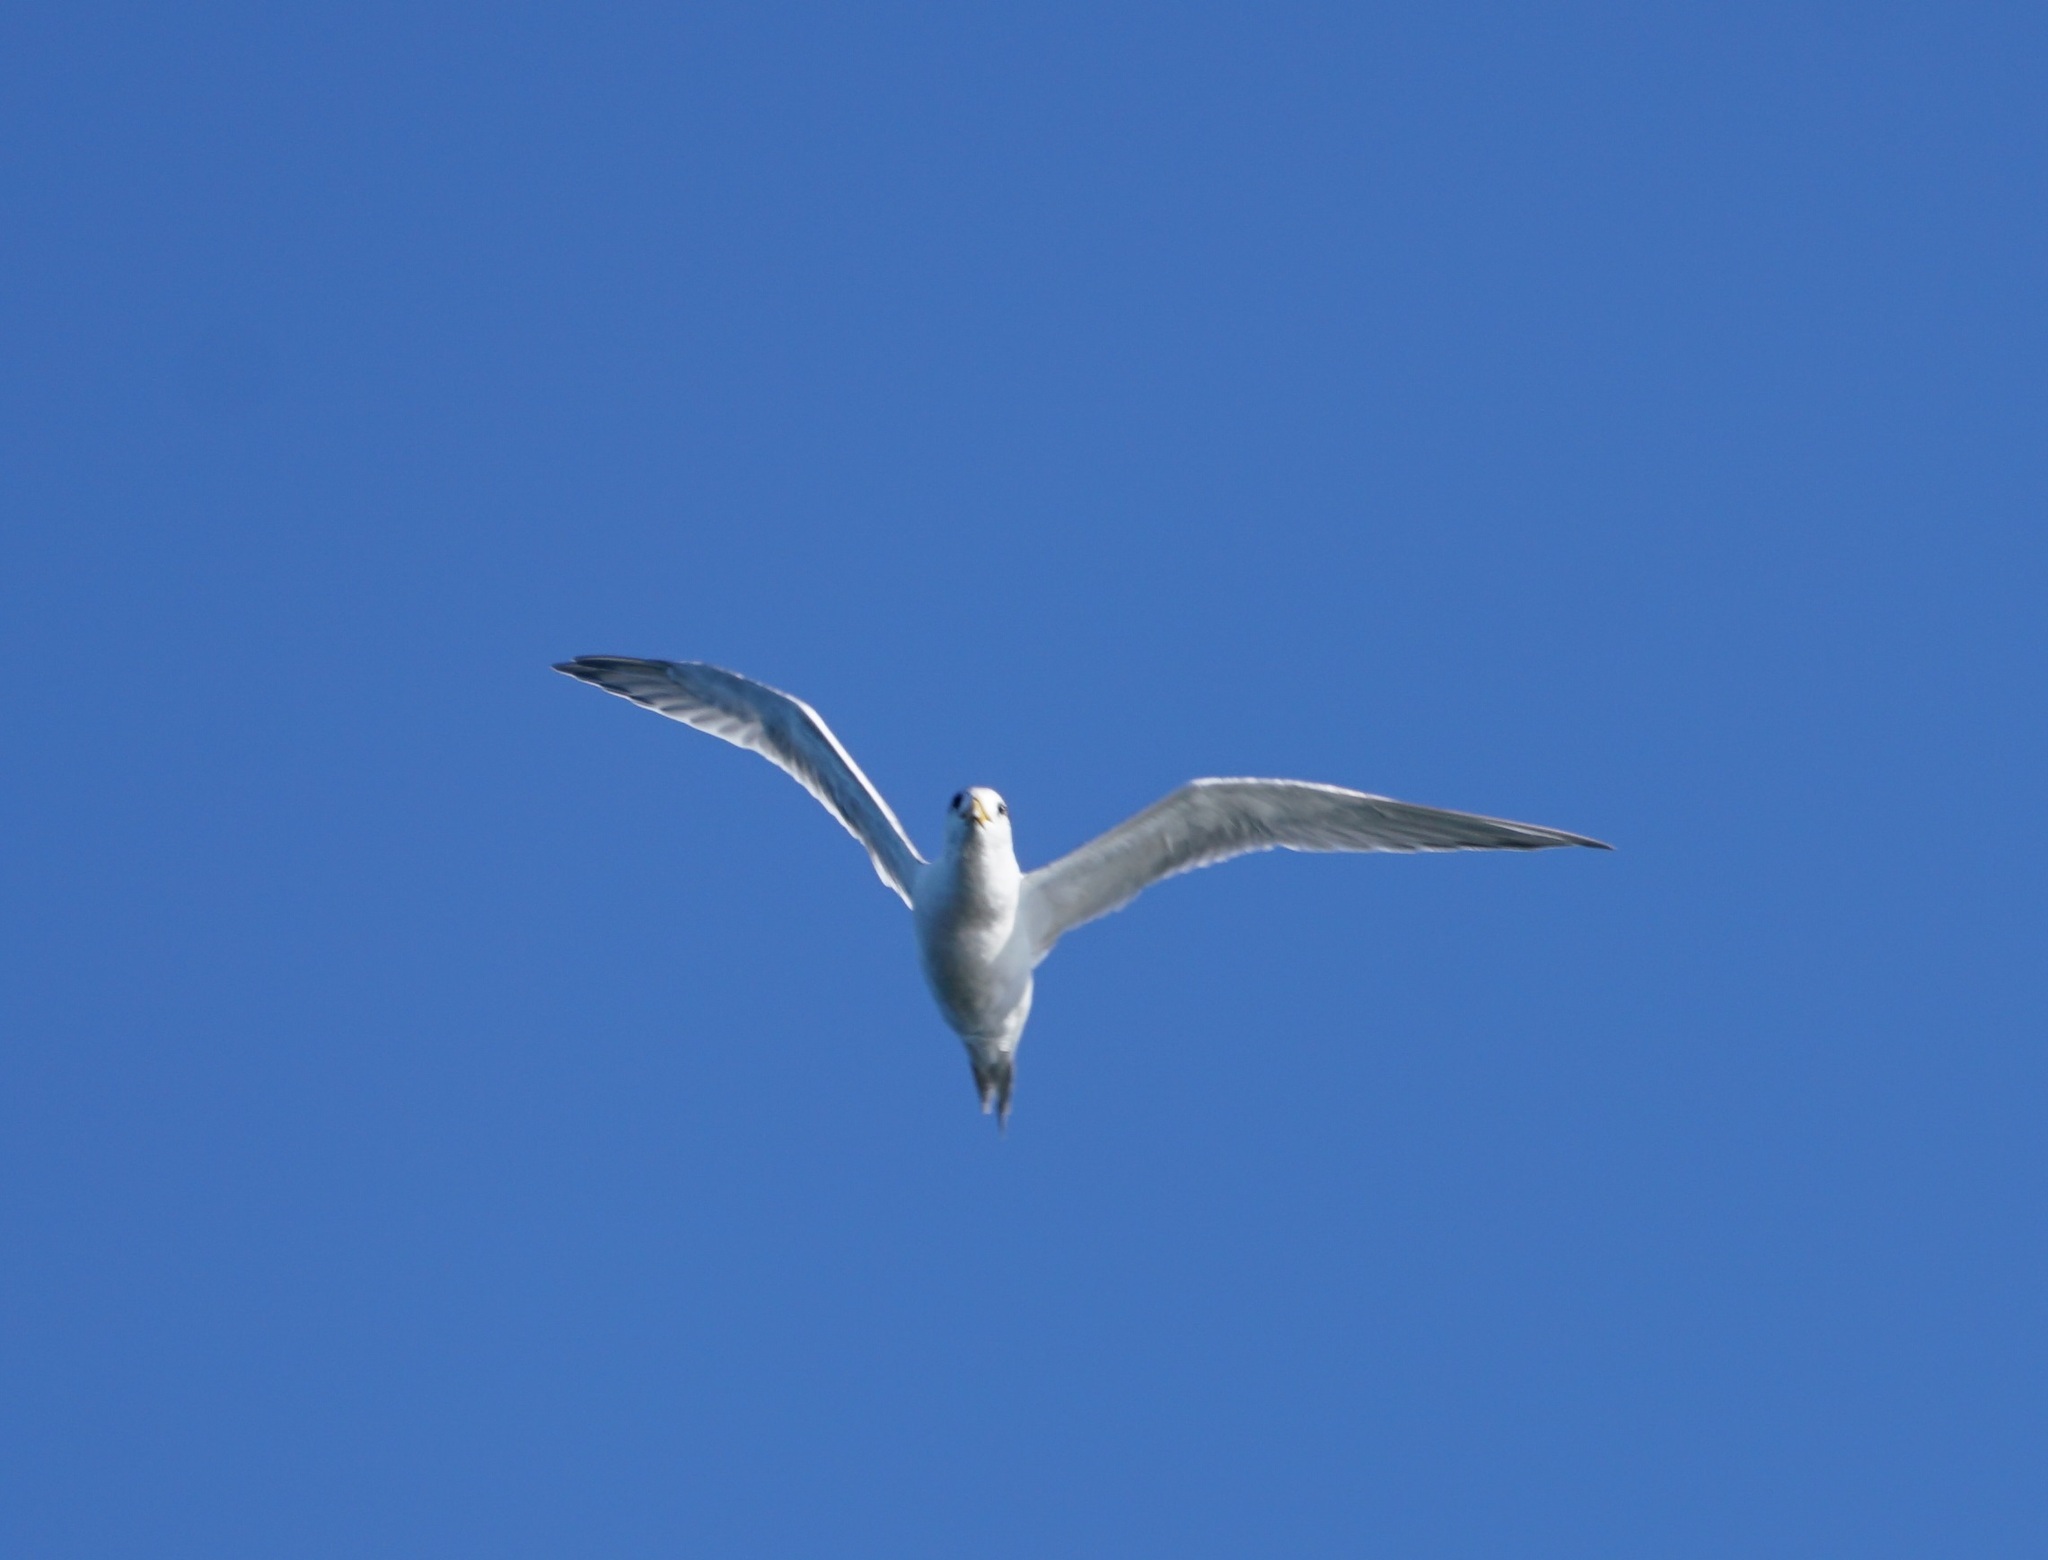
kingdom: Animalia
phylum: Chordata
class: Aves
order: Charadriiformes
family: Laridae
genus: Thalasseus
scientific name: Thalasseus bergii
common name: Greater crested tern
